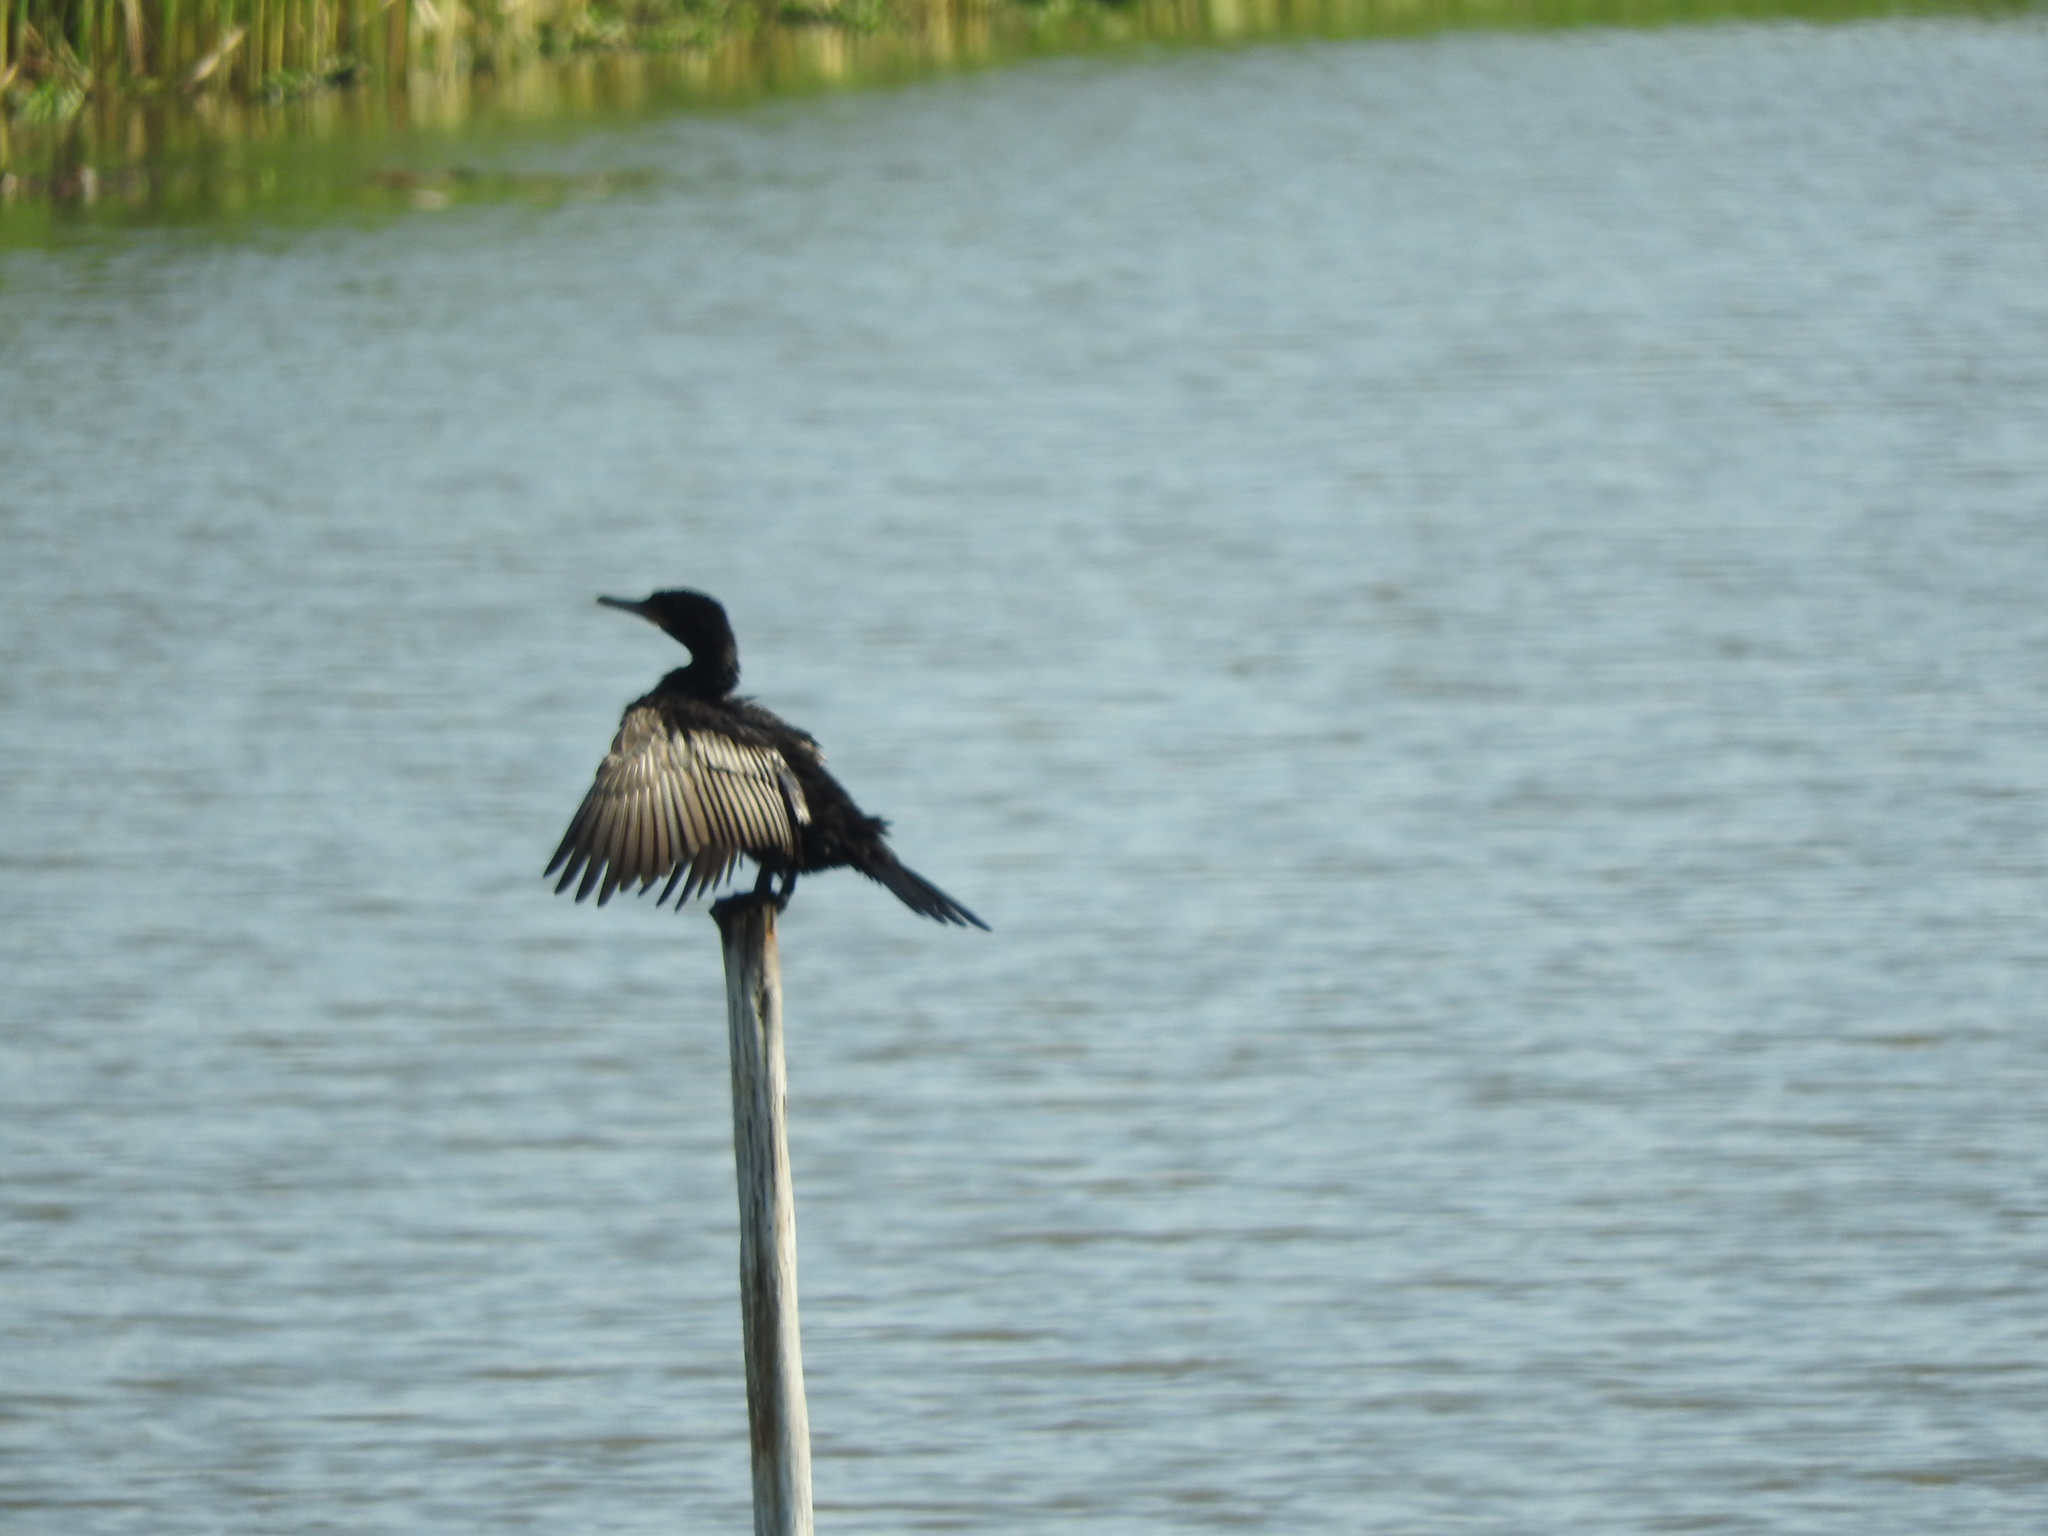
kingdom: Animalia
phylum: Chordata
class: Aves
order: Suliformes
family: Phalacrocoracidae
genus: Phalacrocorax
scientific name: Phalacrocorax brasilianus
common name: Neotropic cormorant
